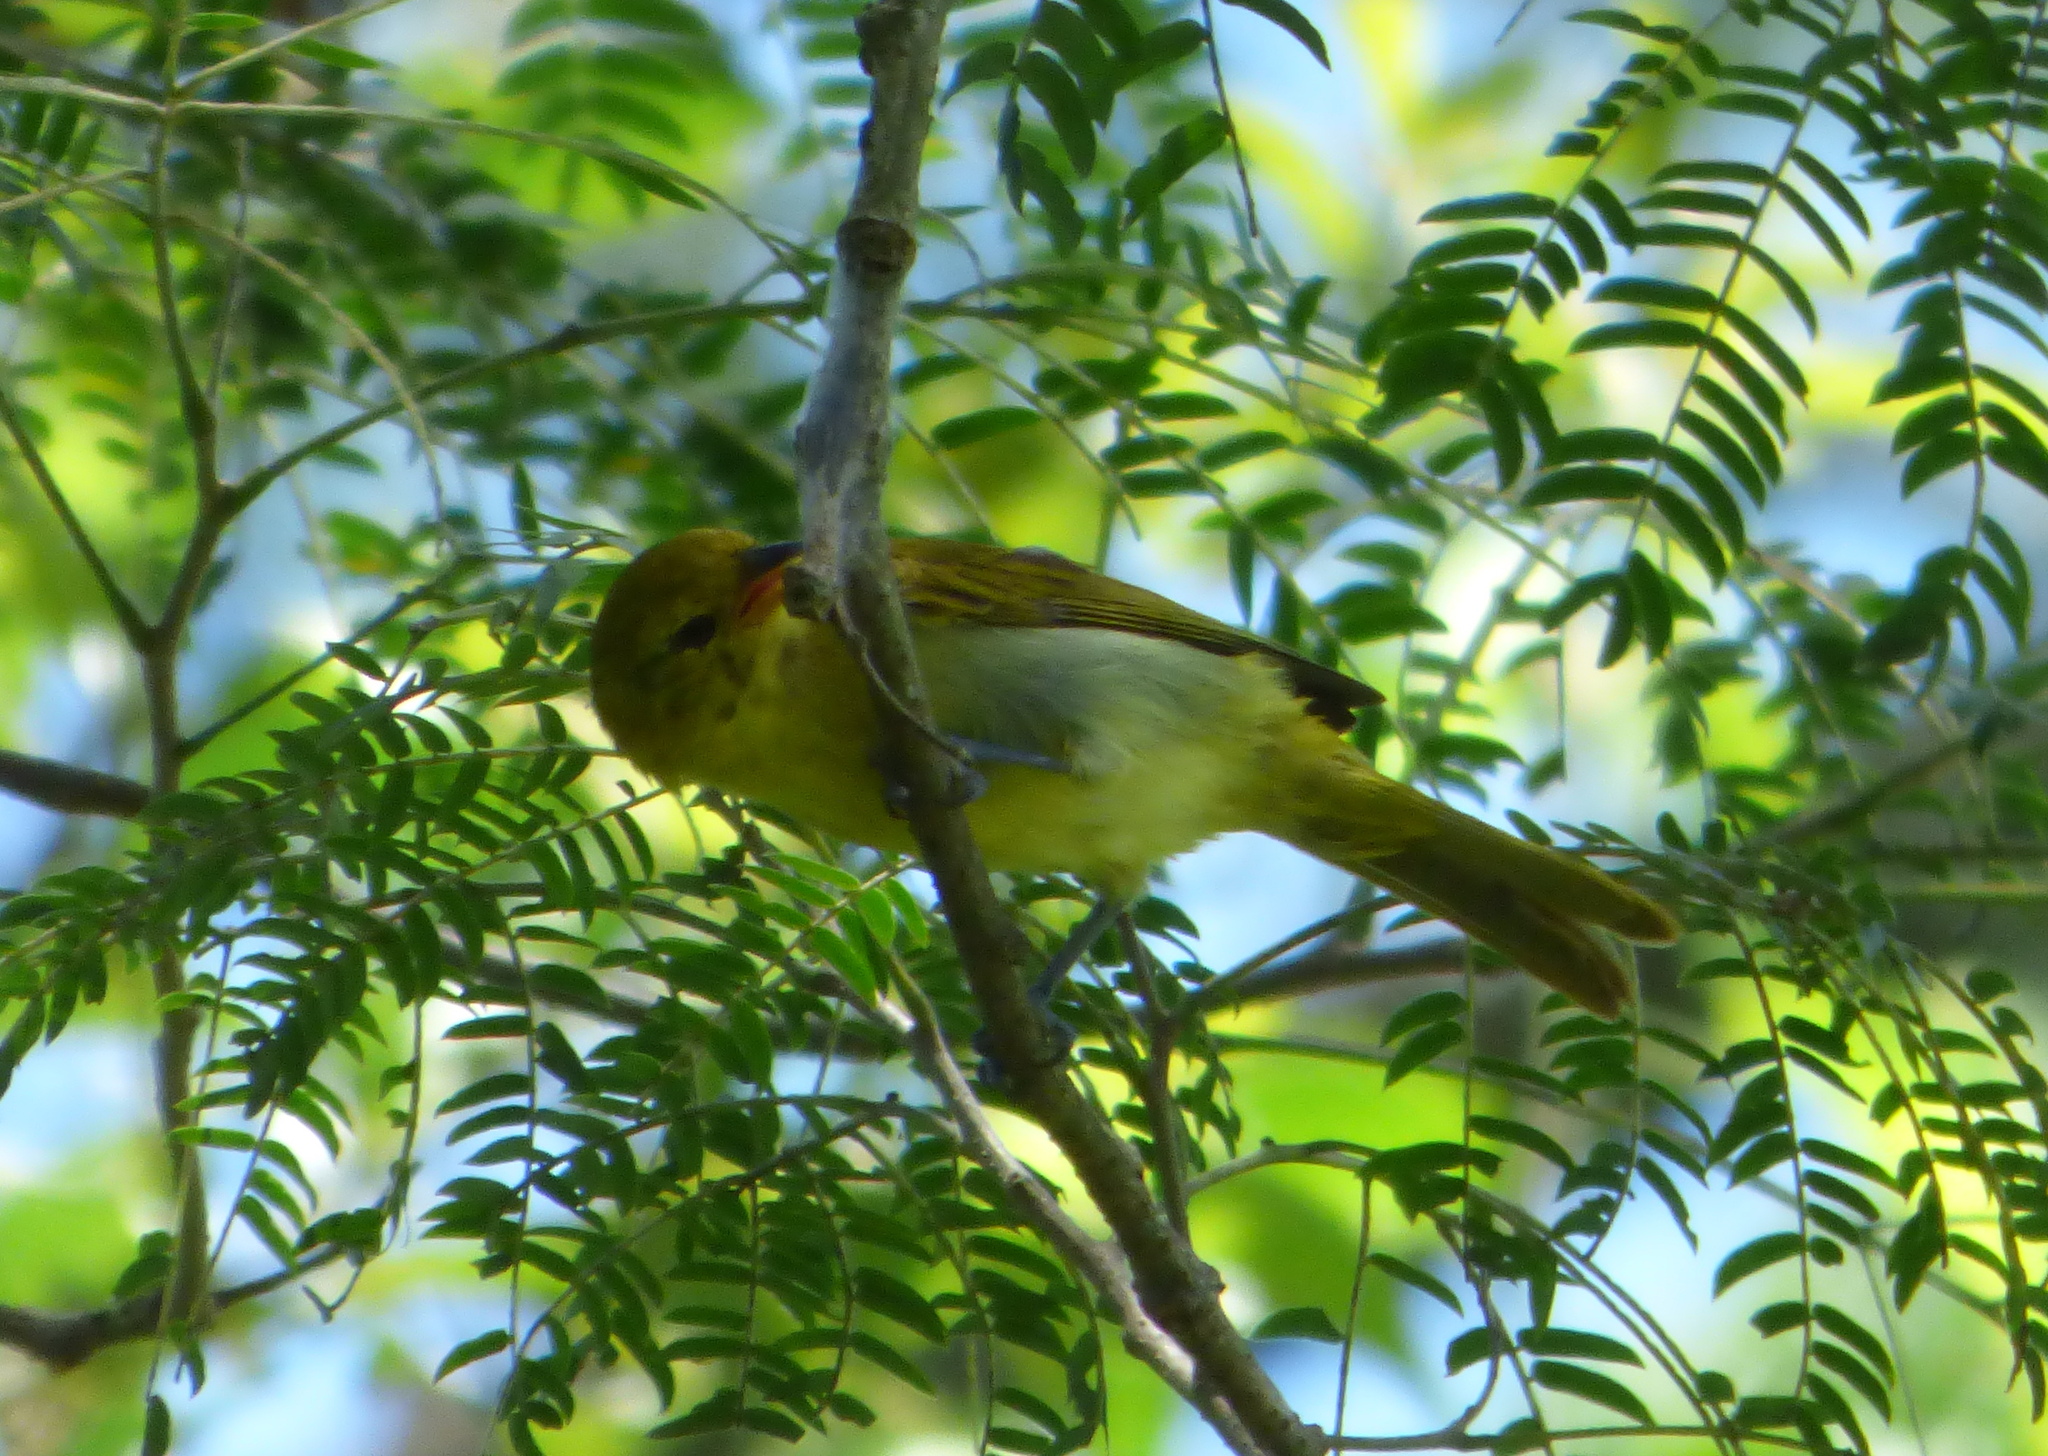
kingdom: Animalia
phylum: Chordata
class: Aves
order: Passeriformes
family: Thraupidae
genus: Hemithraupis
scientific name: Hemithraupis guira
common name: Guira tanager
